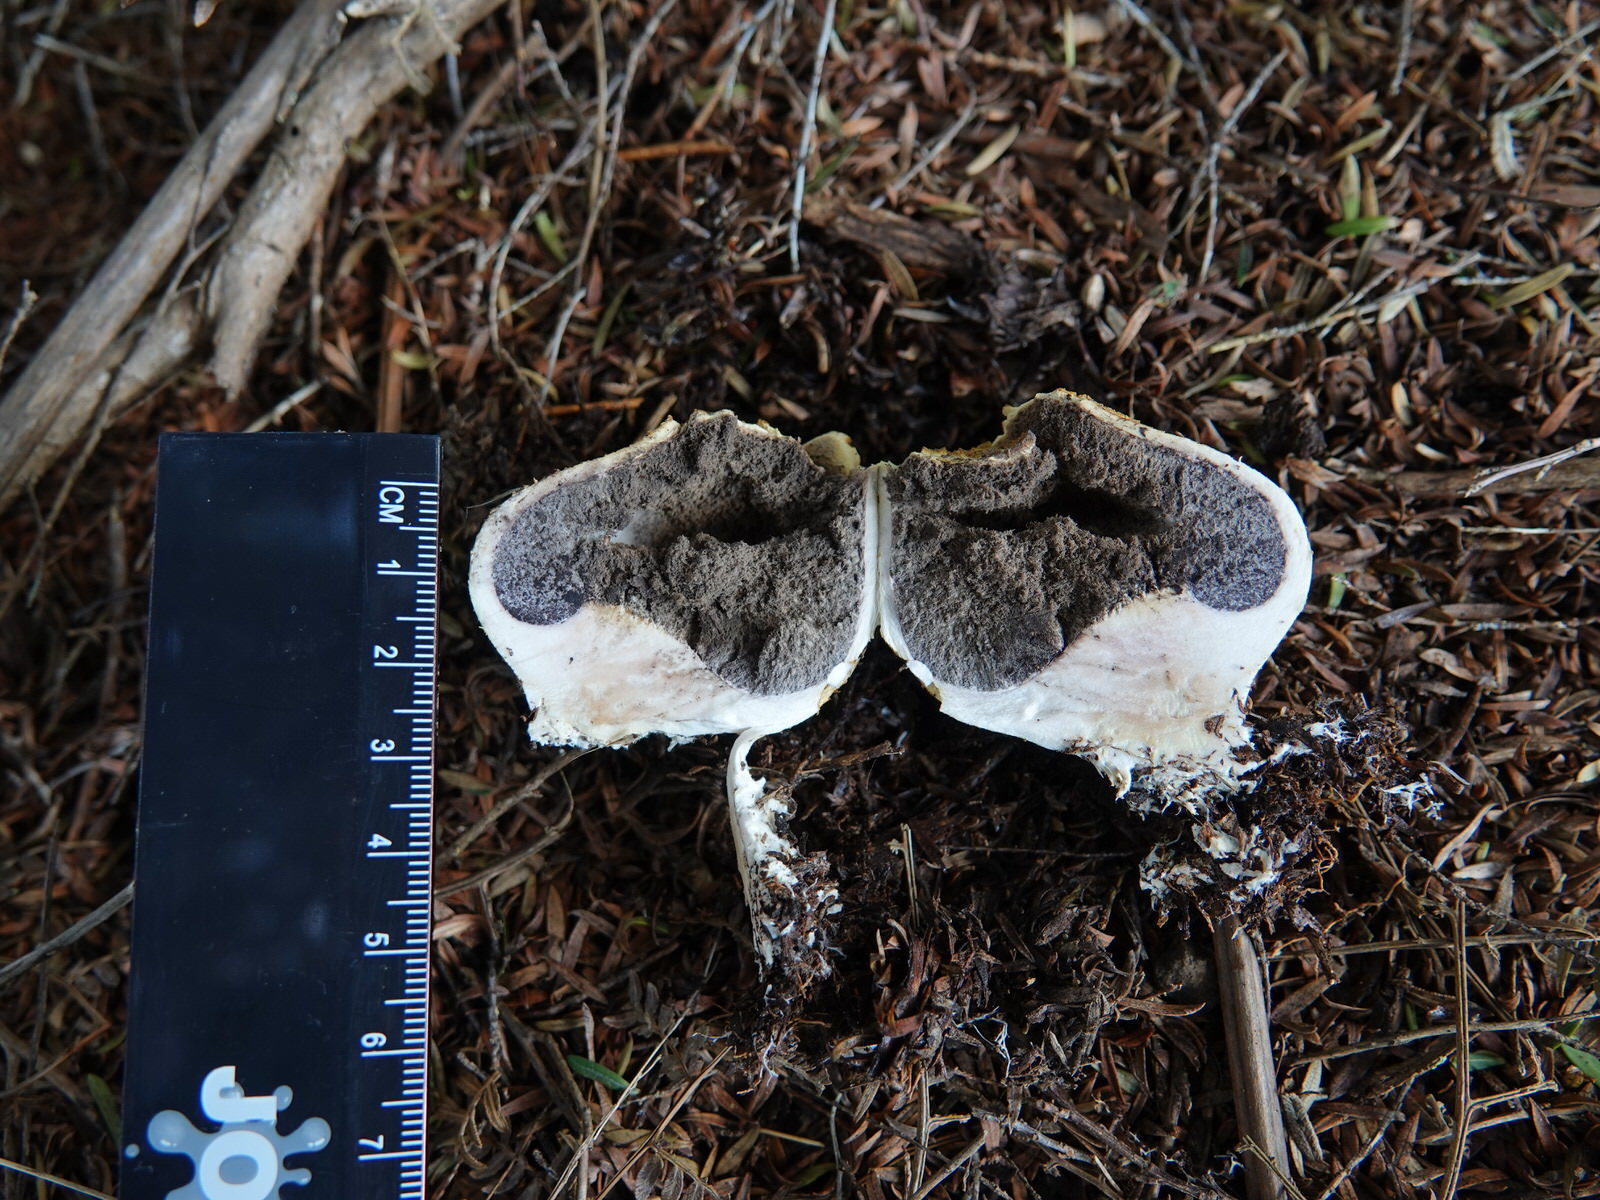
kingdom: Fungi
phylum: Basidiomycota
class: Agaricomycetes
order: Boletales
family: Sclerodermataceae
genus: Scleroderma
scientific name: Scleroderma
